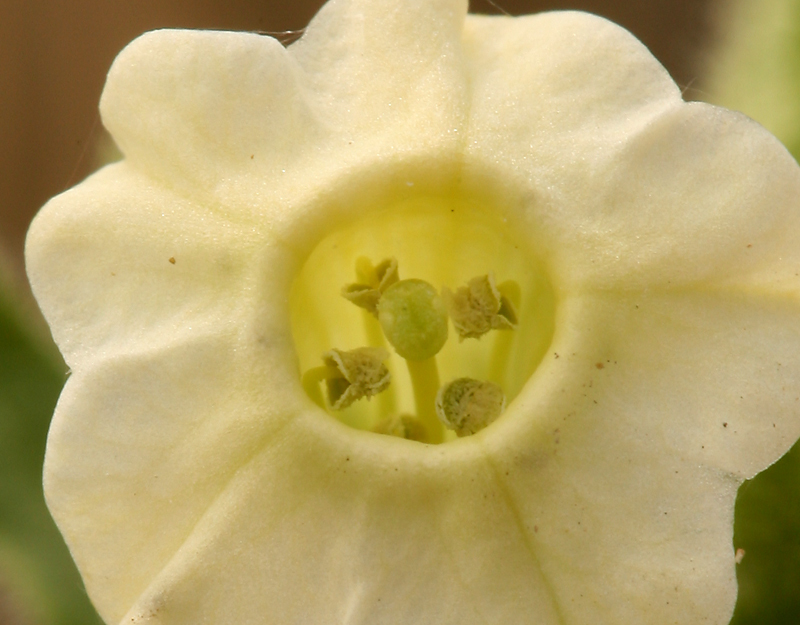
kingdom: Plantae
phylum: Tracheophyta
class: Magnoliopsida
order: Solanales
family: Solanaceae
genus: Nicotiana
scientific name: Nicotiana obtusifolia
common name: Desert tobacco
